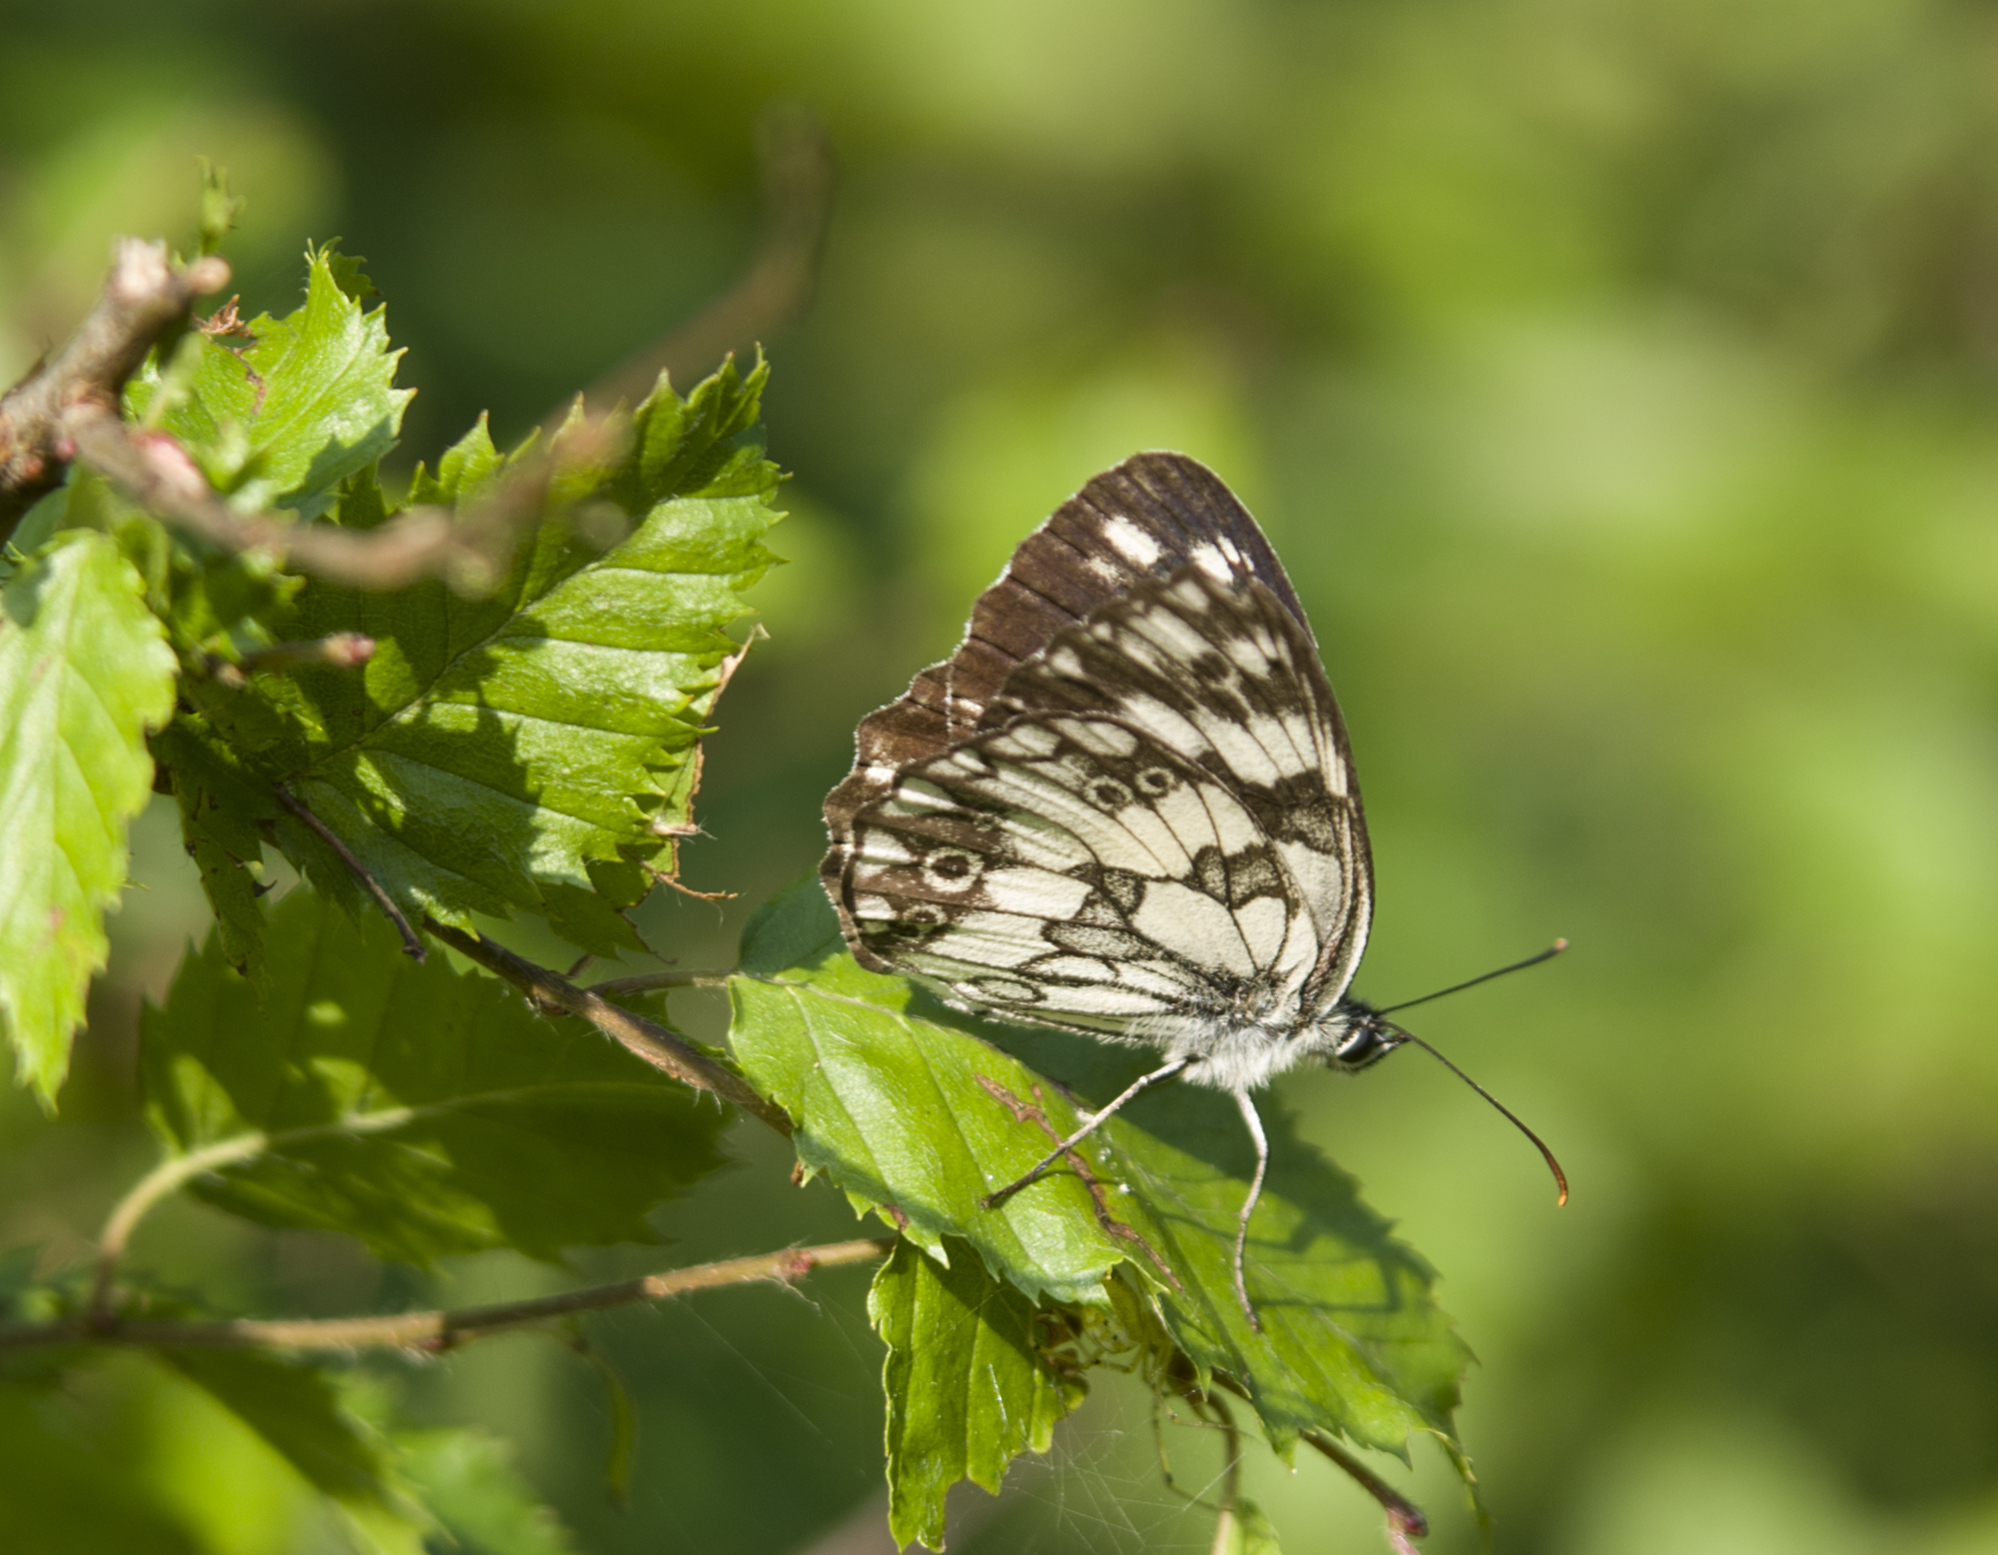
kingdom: Animalia
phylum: Arthropoda
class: Insecta
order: Lepidoptera
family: Nymphalidae
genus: Melanargia
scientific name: Melanargia galathea
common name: Marbled white
